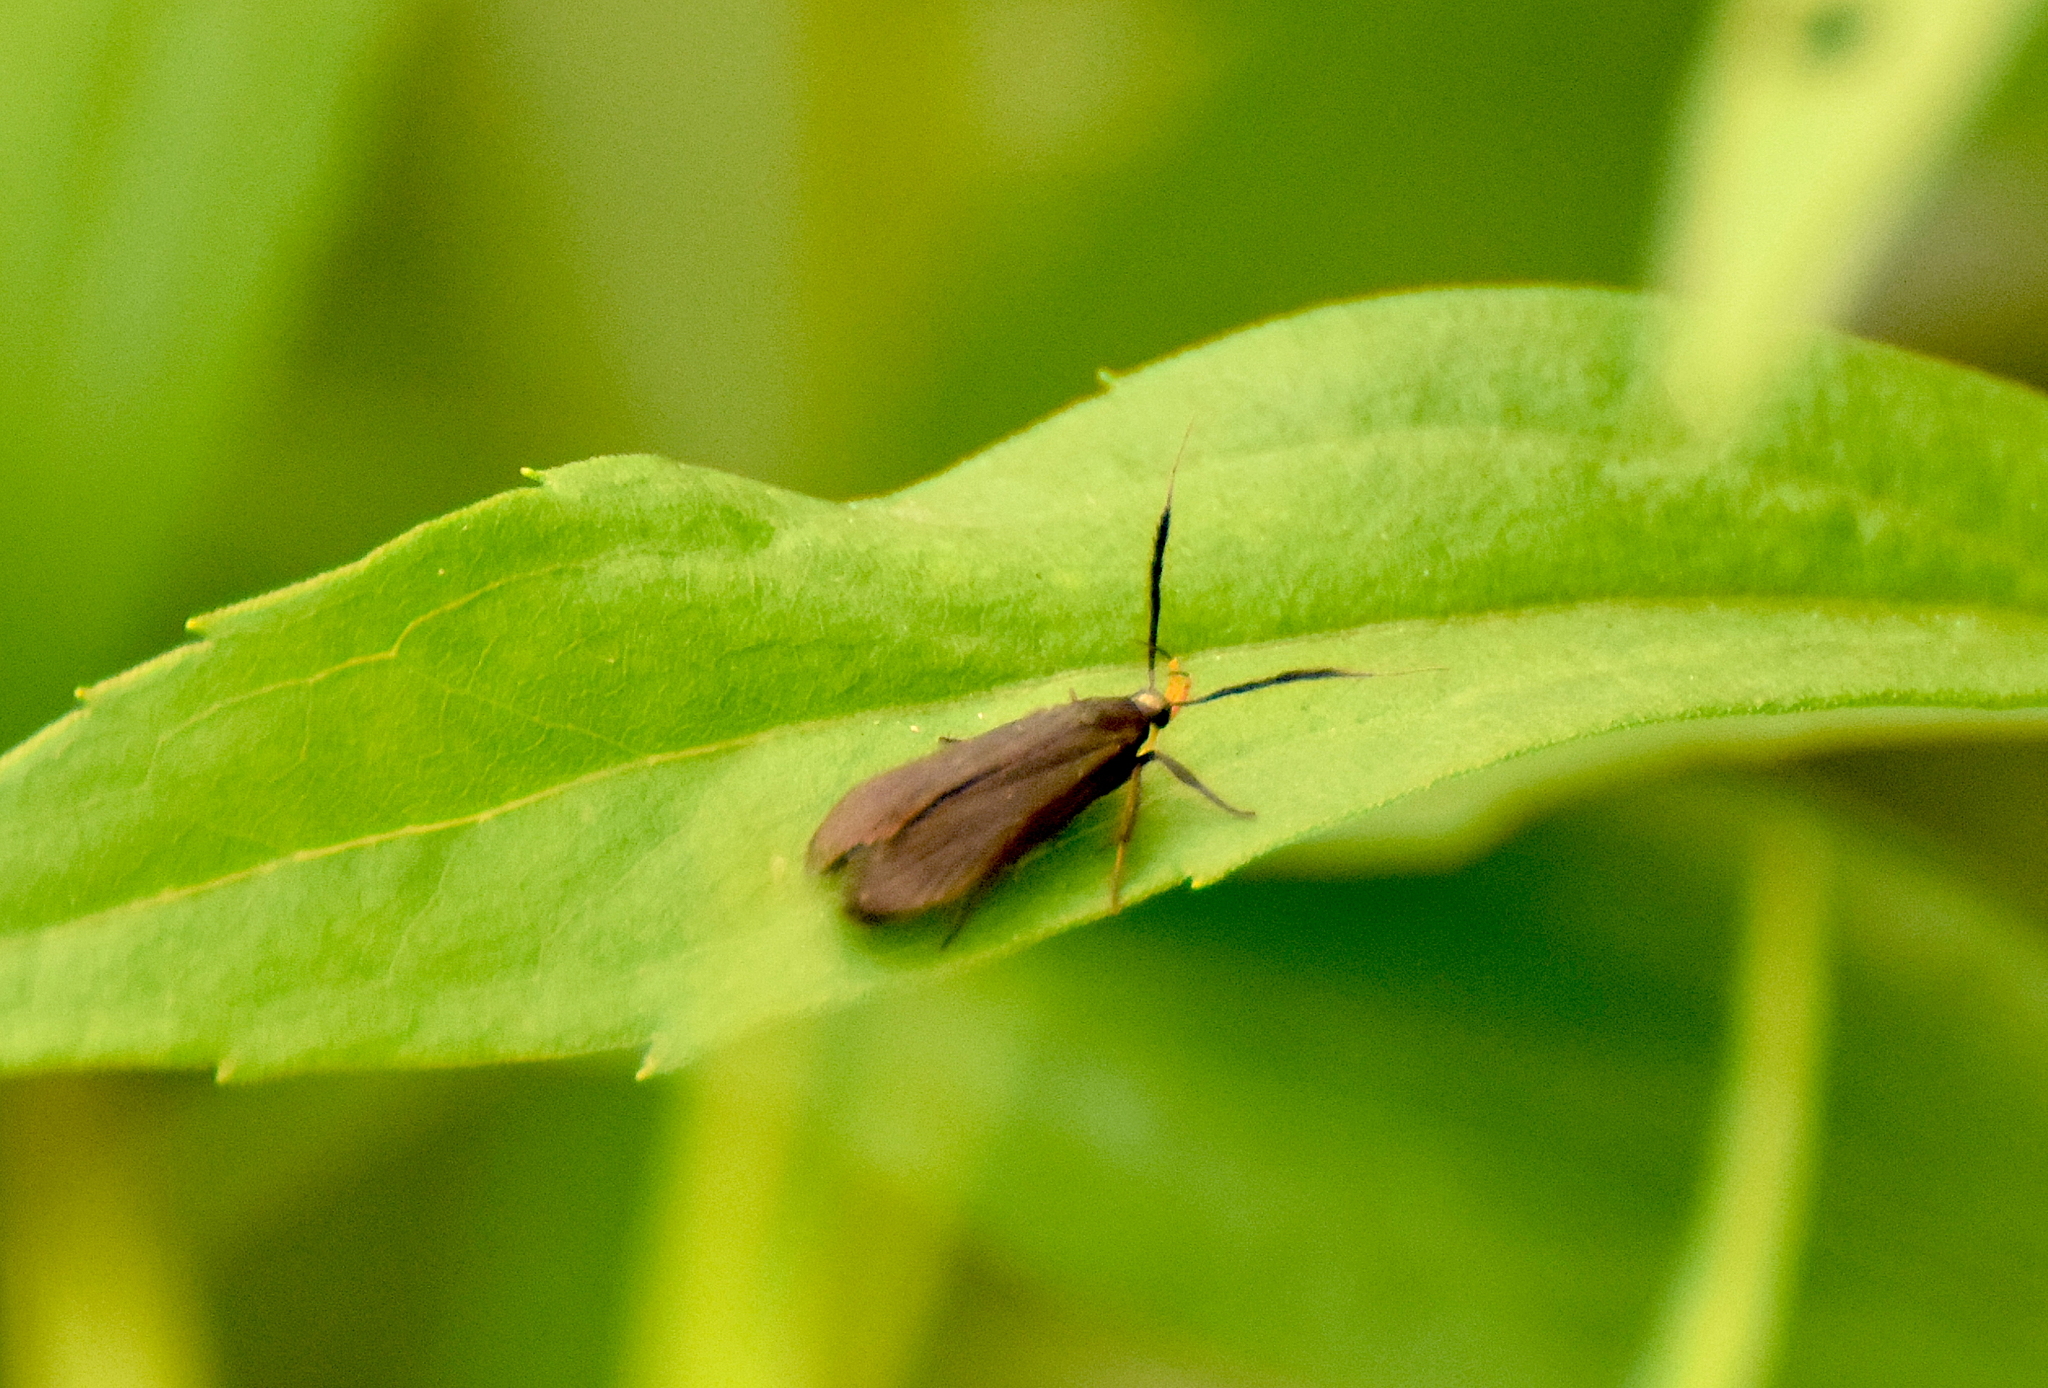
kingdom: Animalia
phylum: Arthropoda
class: Insecta
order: Lepidoptera
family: Gelechiidae
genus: Dichomeris
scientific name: Dichomeris nonstrigella
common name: Little devil moth
